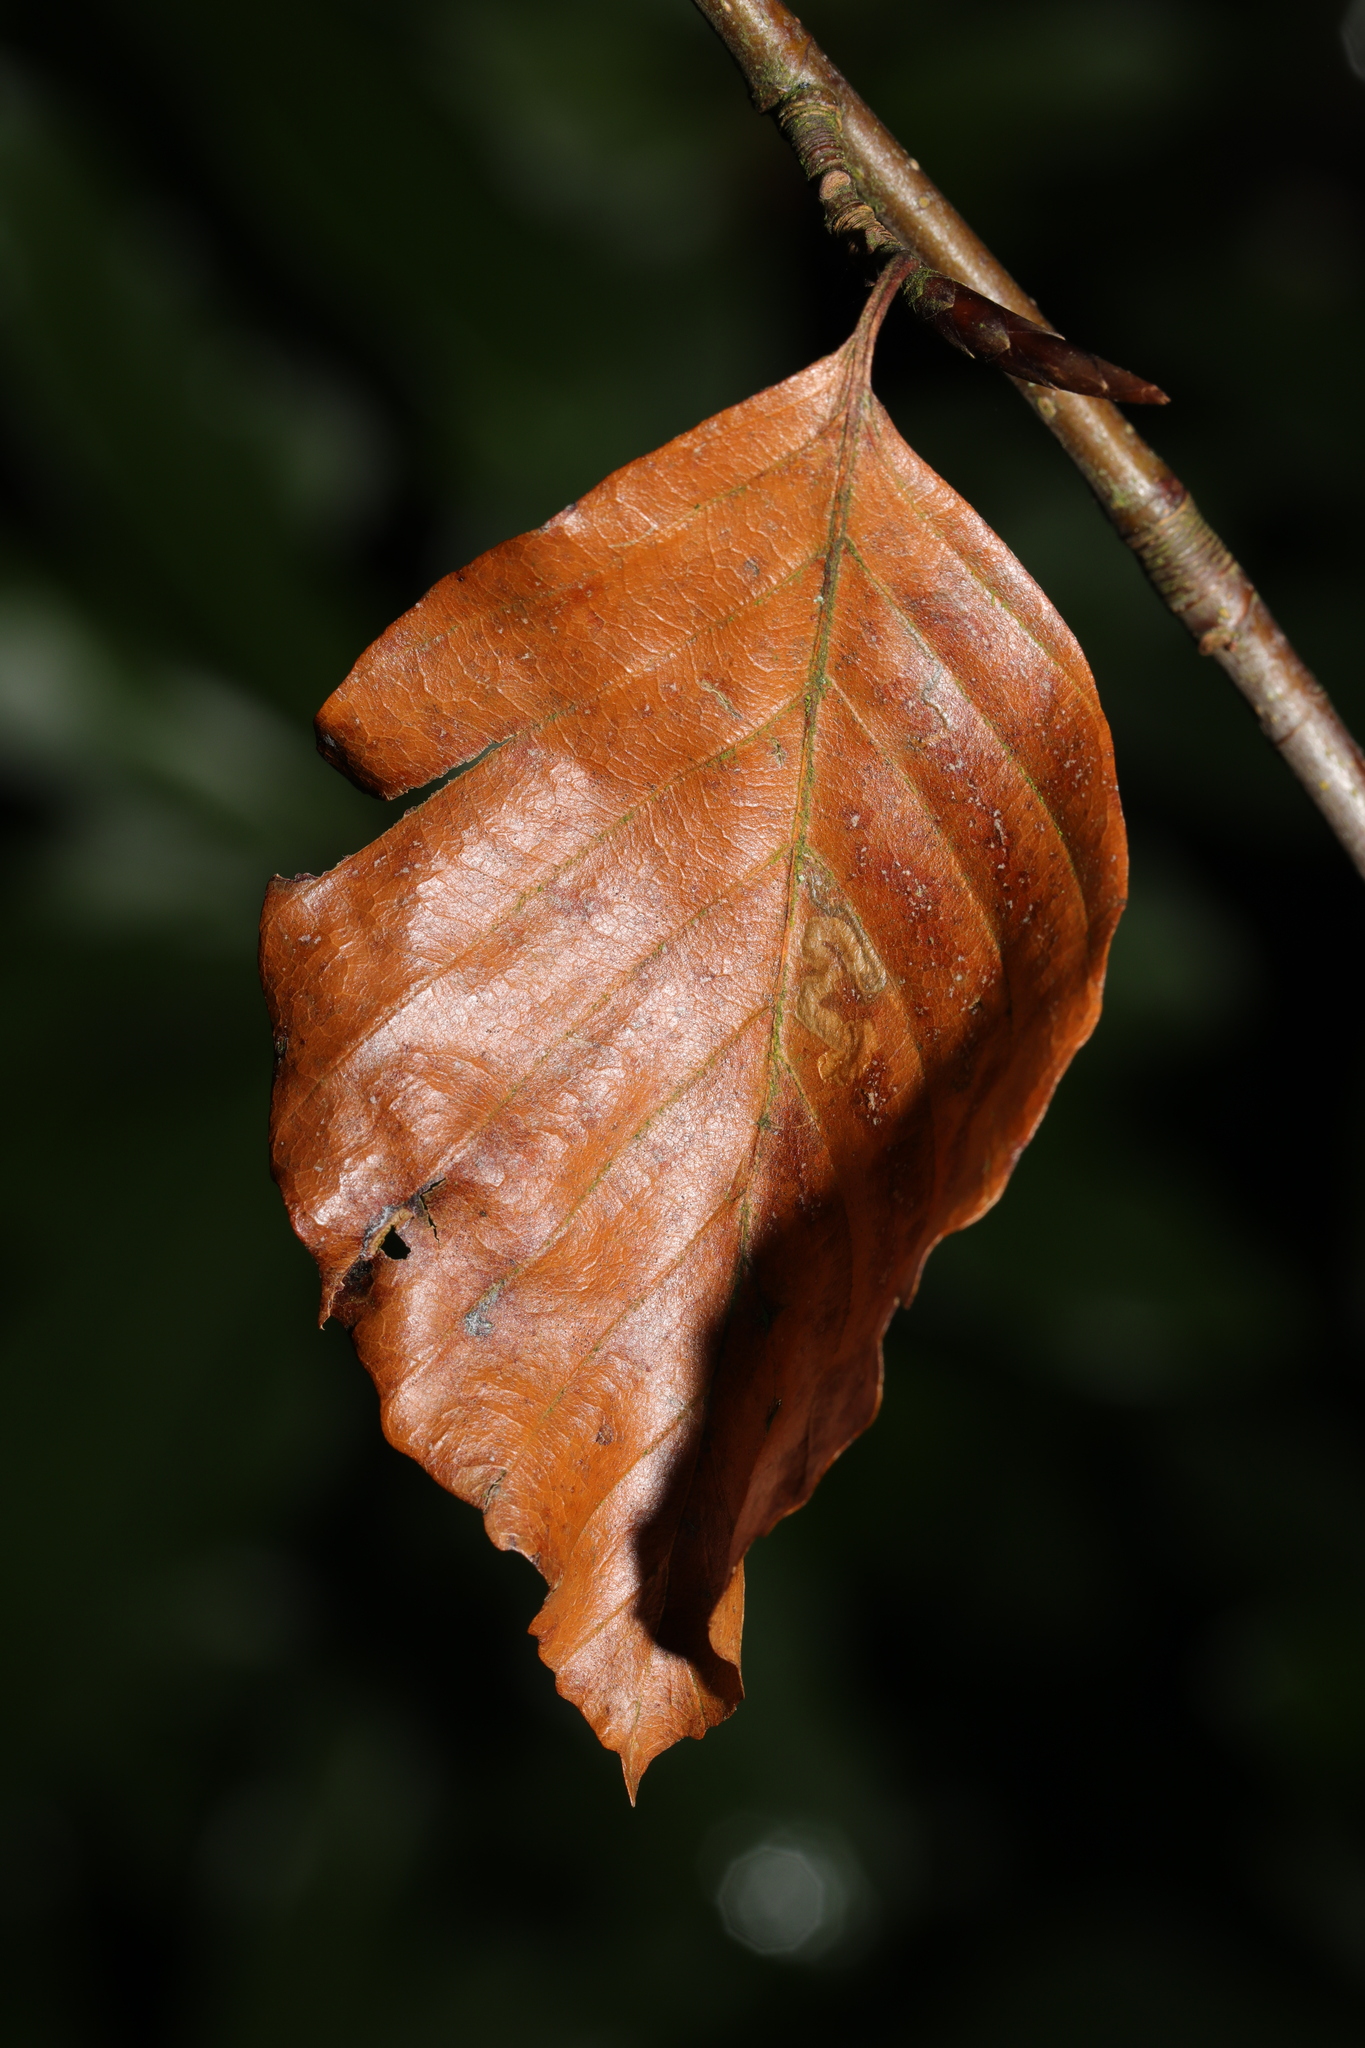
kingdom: Plantae
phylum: Tracheophyta
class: Magnoliopsida
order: Fagales
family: Fagaceae
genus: Fagus
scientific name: Fagus sylvatica
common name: Beech
